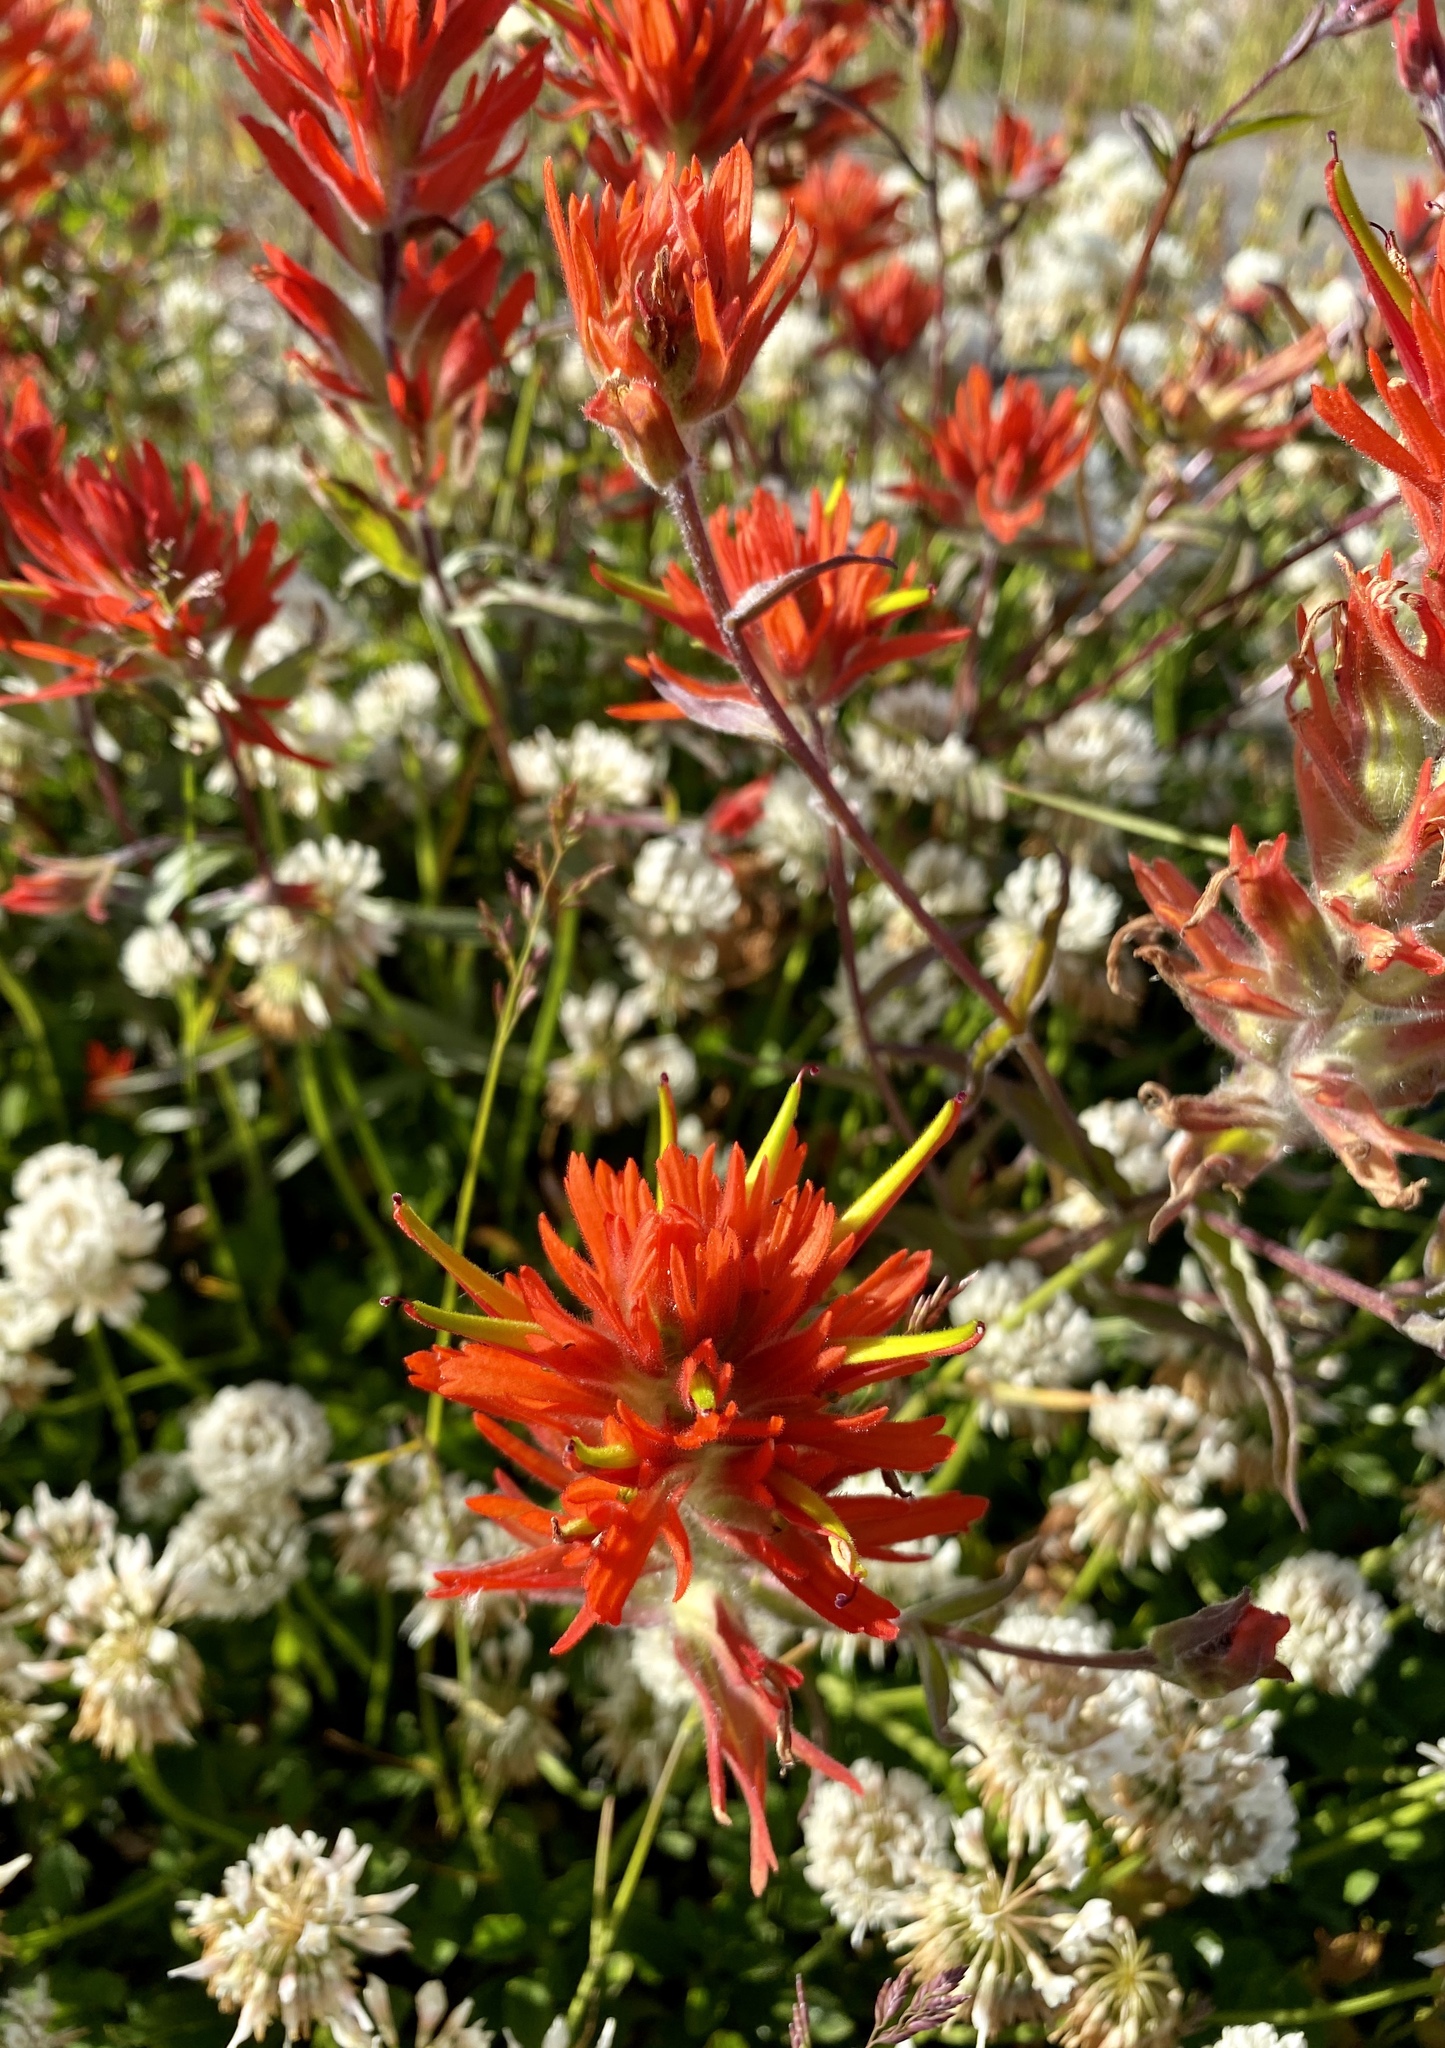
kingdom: Plantae
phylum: Tracheophyta
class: Magnoliopsida
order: Lamiales
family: Orobanchaceae
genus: Castilleja
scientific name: Castilleja miniata
